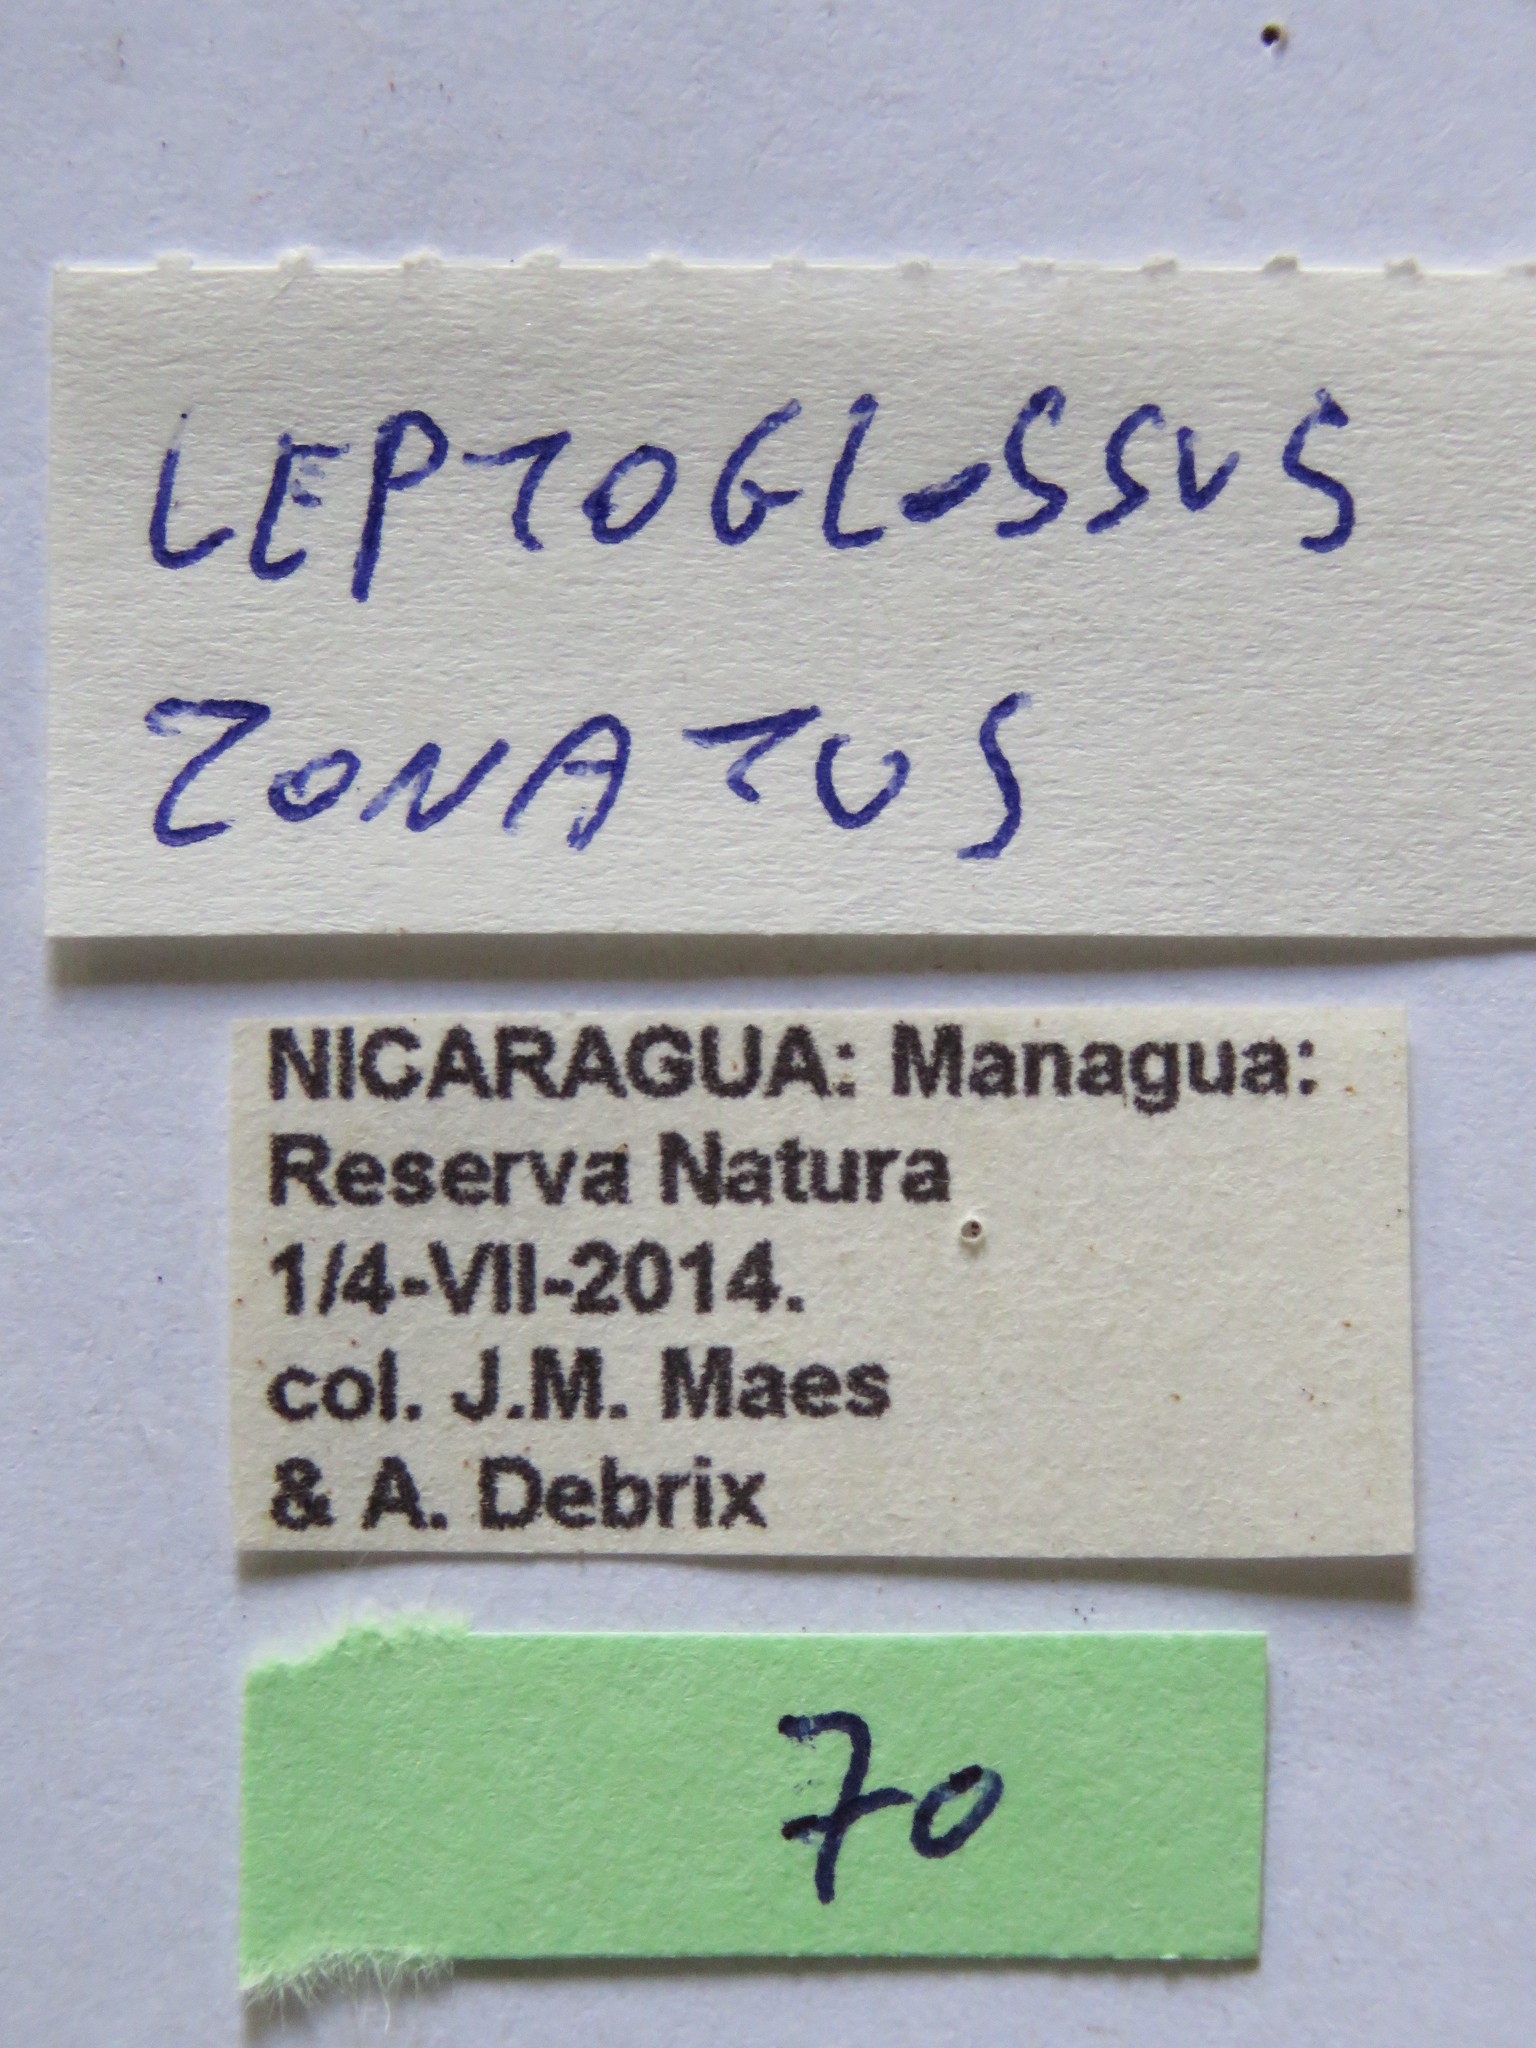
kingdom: Animalia
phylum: Arthropoda
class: Insecta
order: Hemiptera
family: Coreidae
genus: Leptoglossus
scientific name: Leptoglossus zonatus
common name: Large-legged bug
